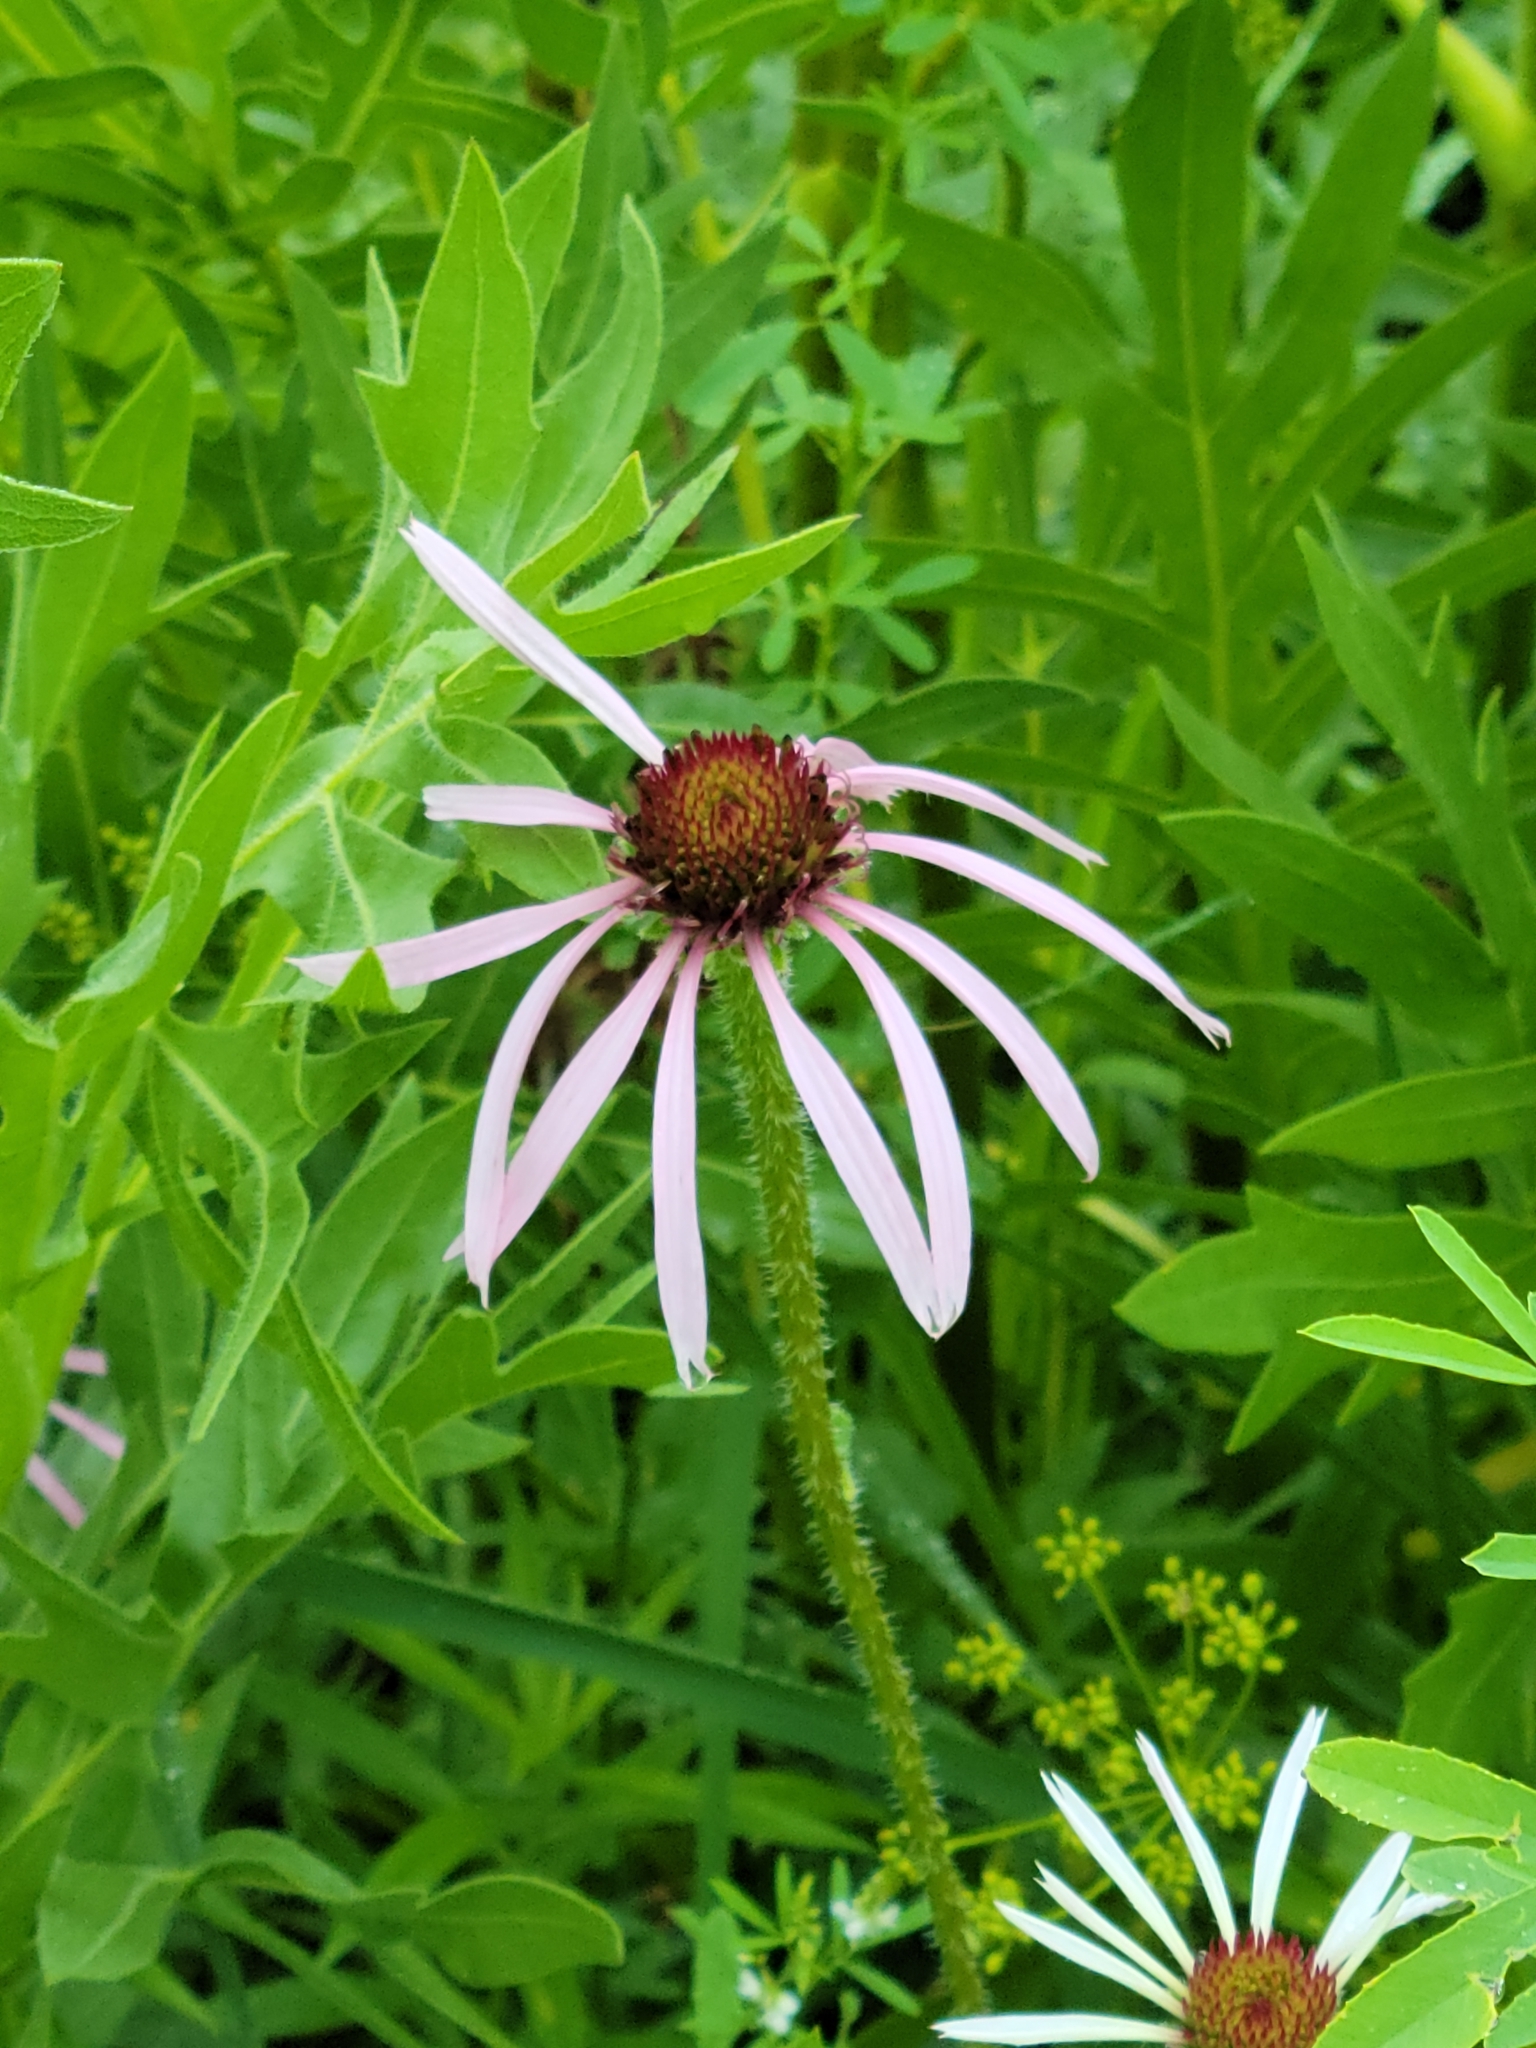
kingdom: Plantae
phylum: Tracheophyta
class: Magnoliopsida
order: Asterales
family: Asteraceae
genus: Echinacea
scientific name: Echinacea pallida
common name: Pale echinacea
